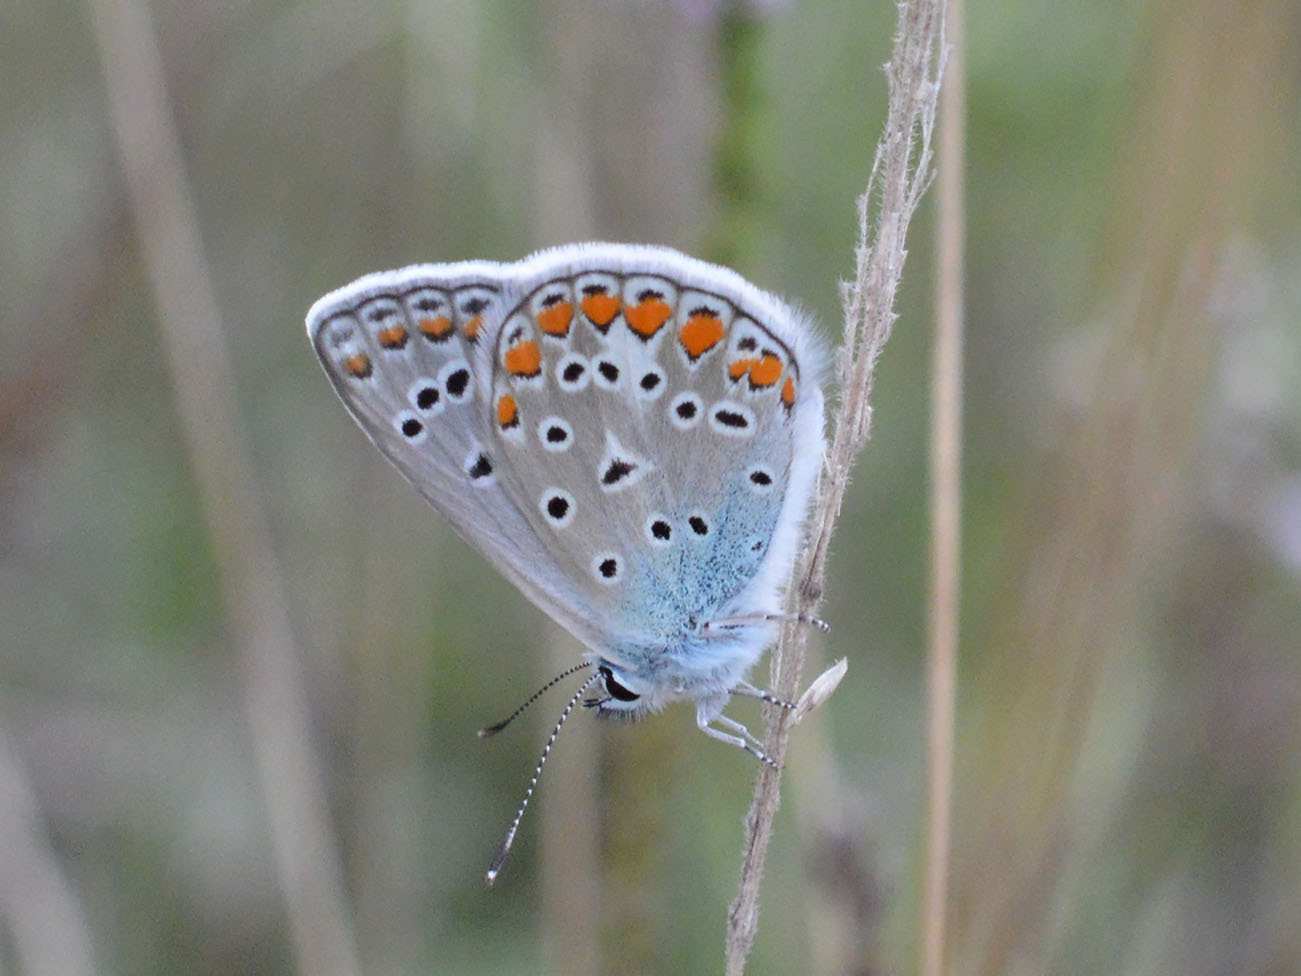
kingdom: Animalia
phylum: Arthropoda
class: Insecta
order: Lepidoptera
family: Lycaenidae
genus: Polyommatus
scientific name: Polyommatus icarus
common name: Common blue
